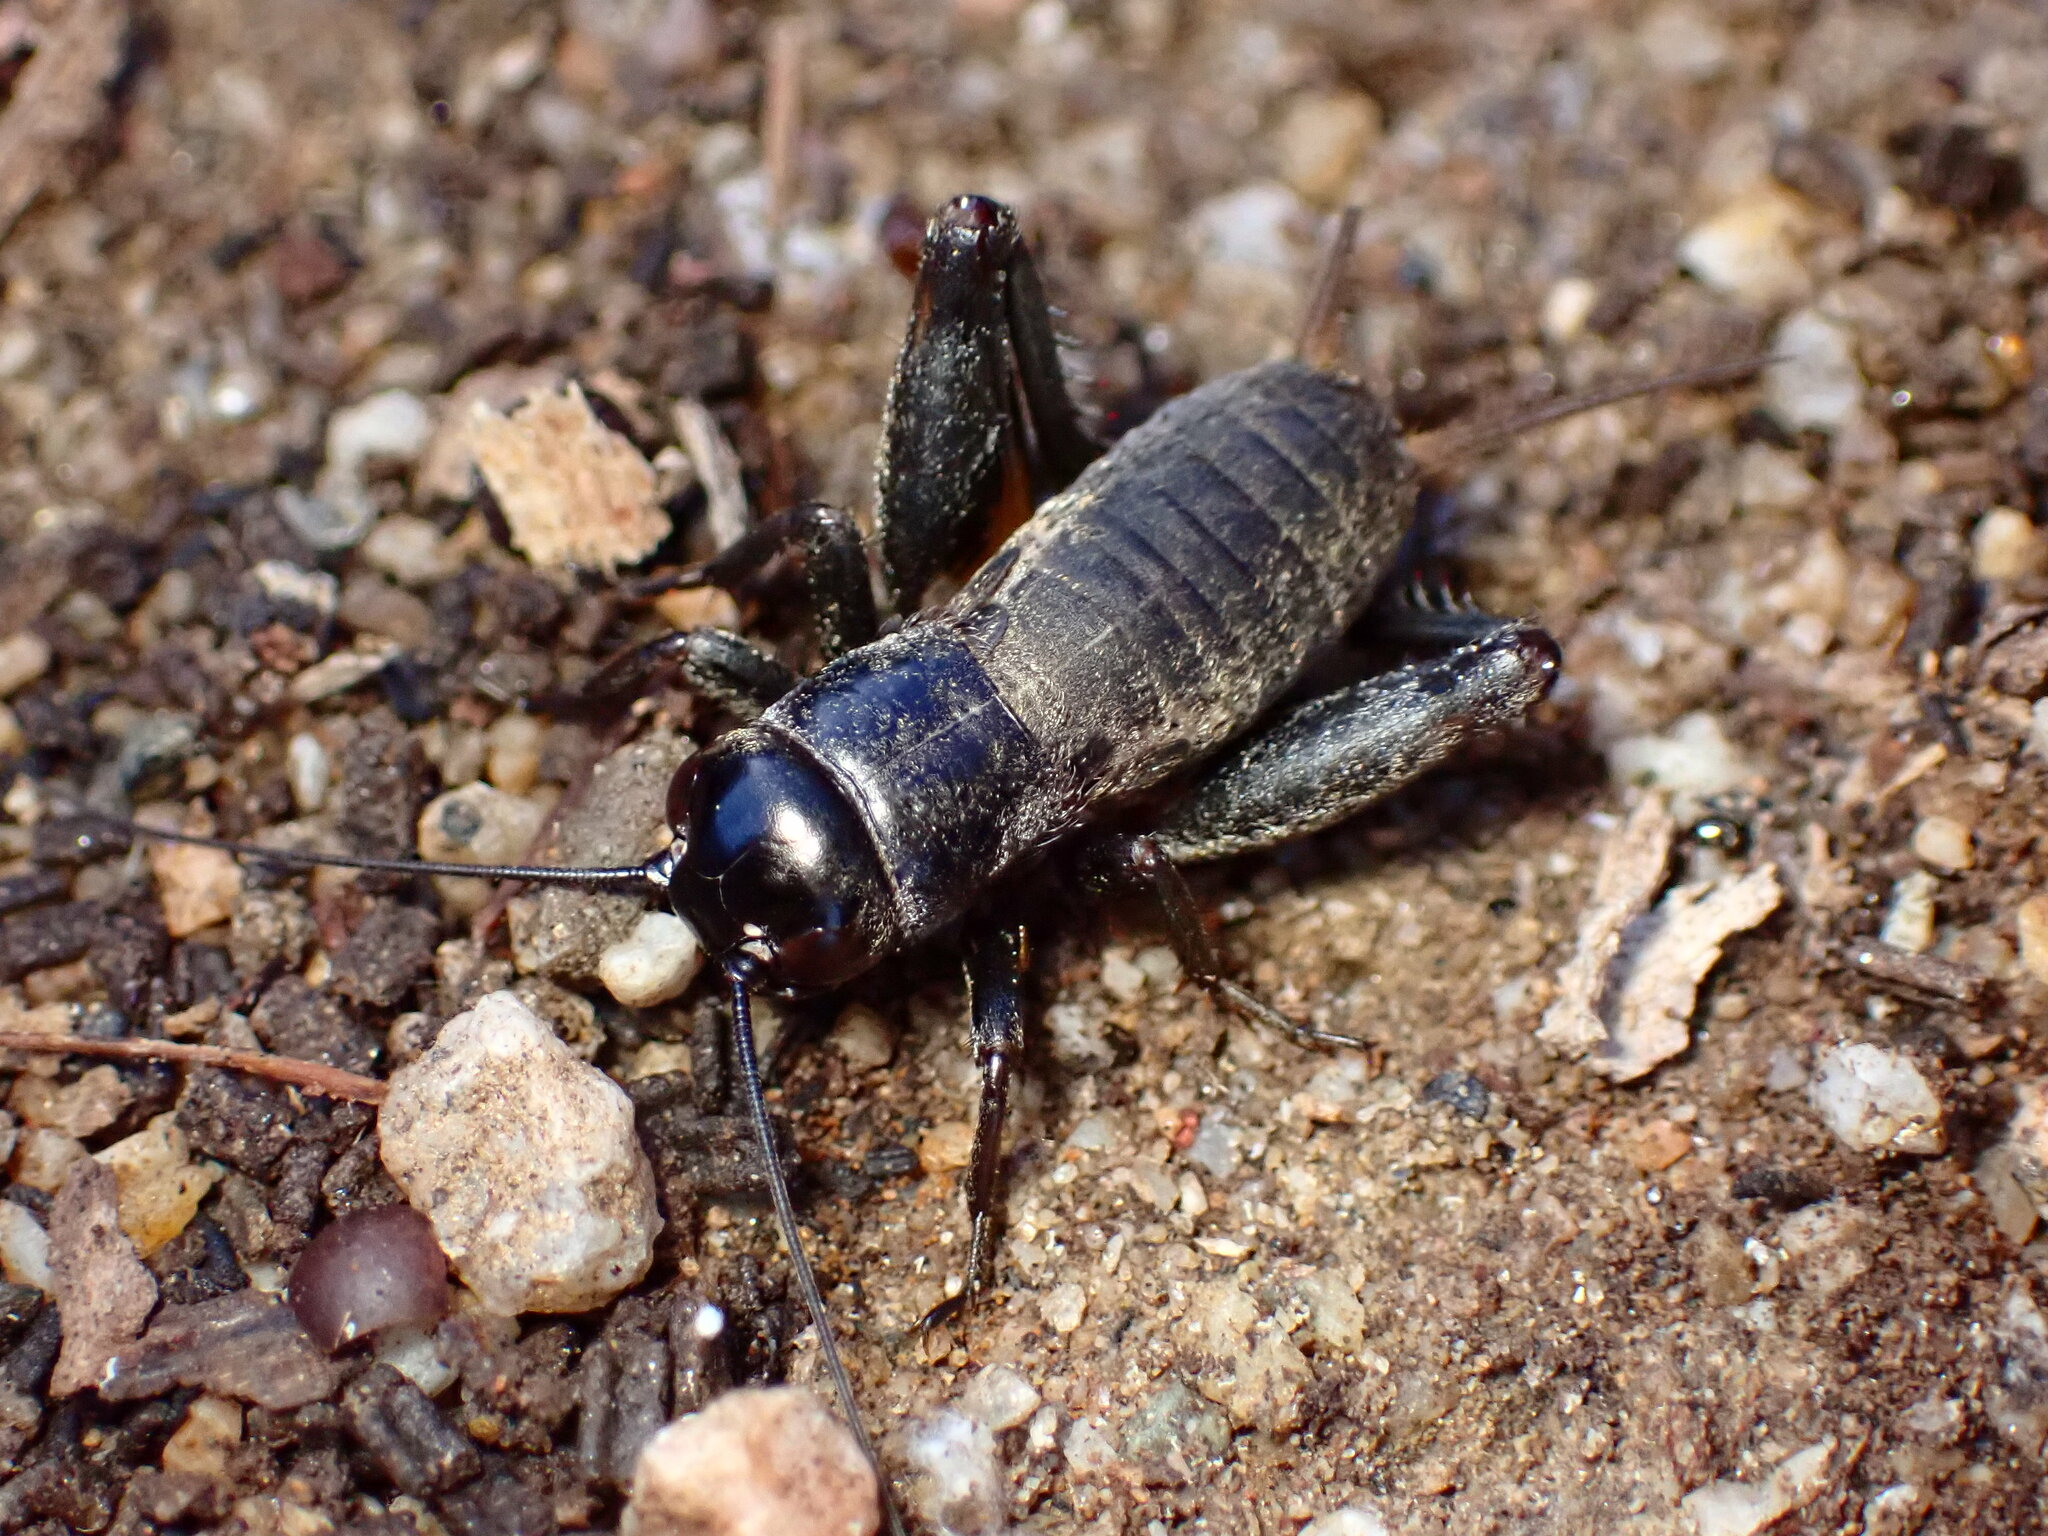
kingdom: Animalia
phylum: Arthropoda
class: Insecta
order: Orthoptera
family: Gryllidae
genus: Gryllus
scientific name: Gryllus
